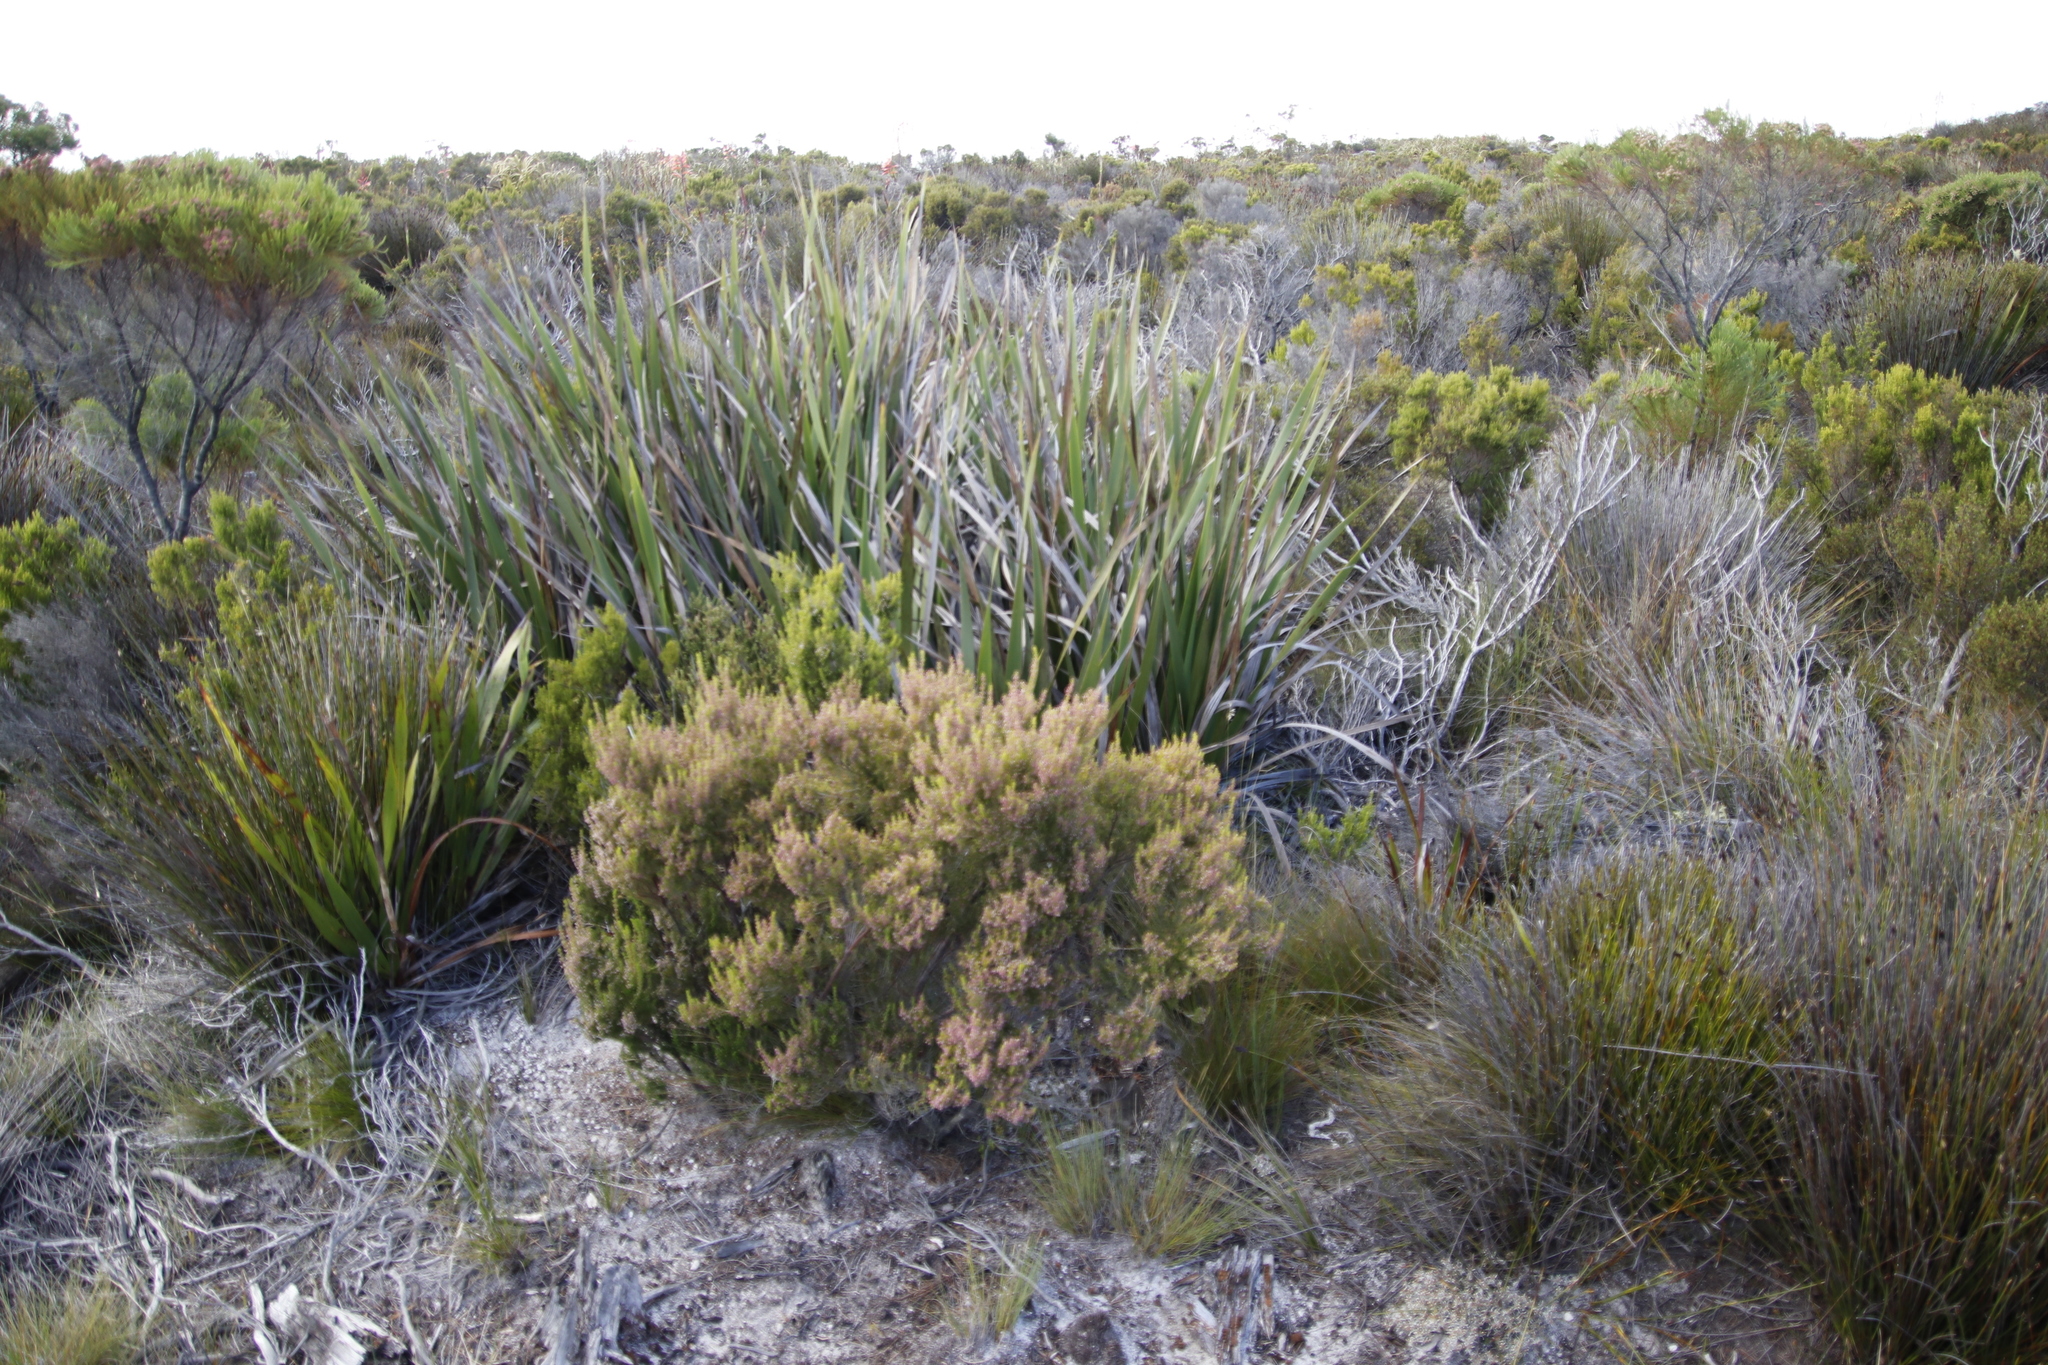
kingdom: Plantae
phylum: Tracheophyta
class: Magnoliopsida
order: Ericales
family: Ericaceae
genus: Erica
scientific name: Erica hispidula
